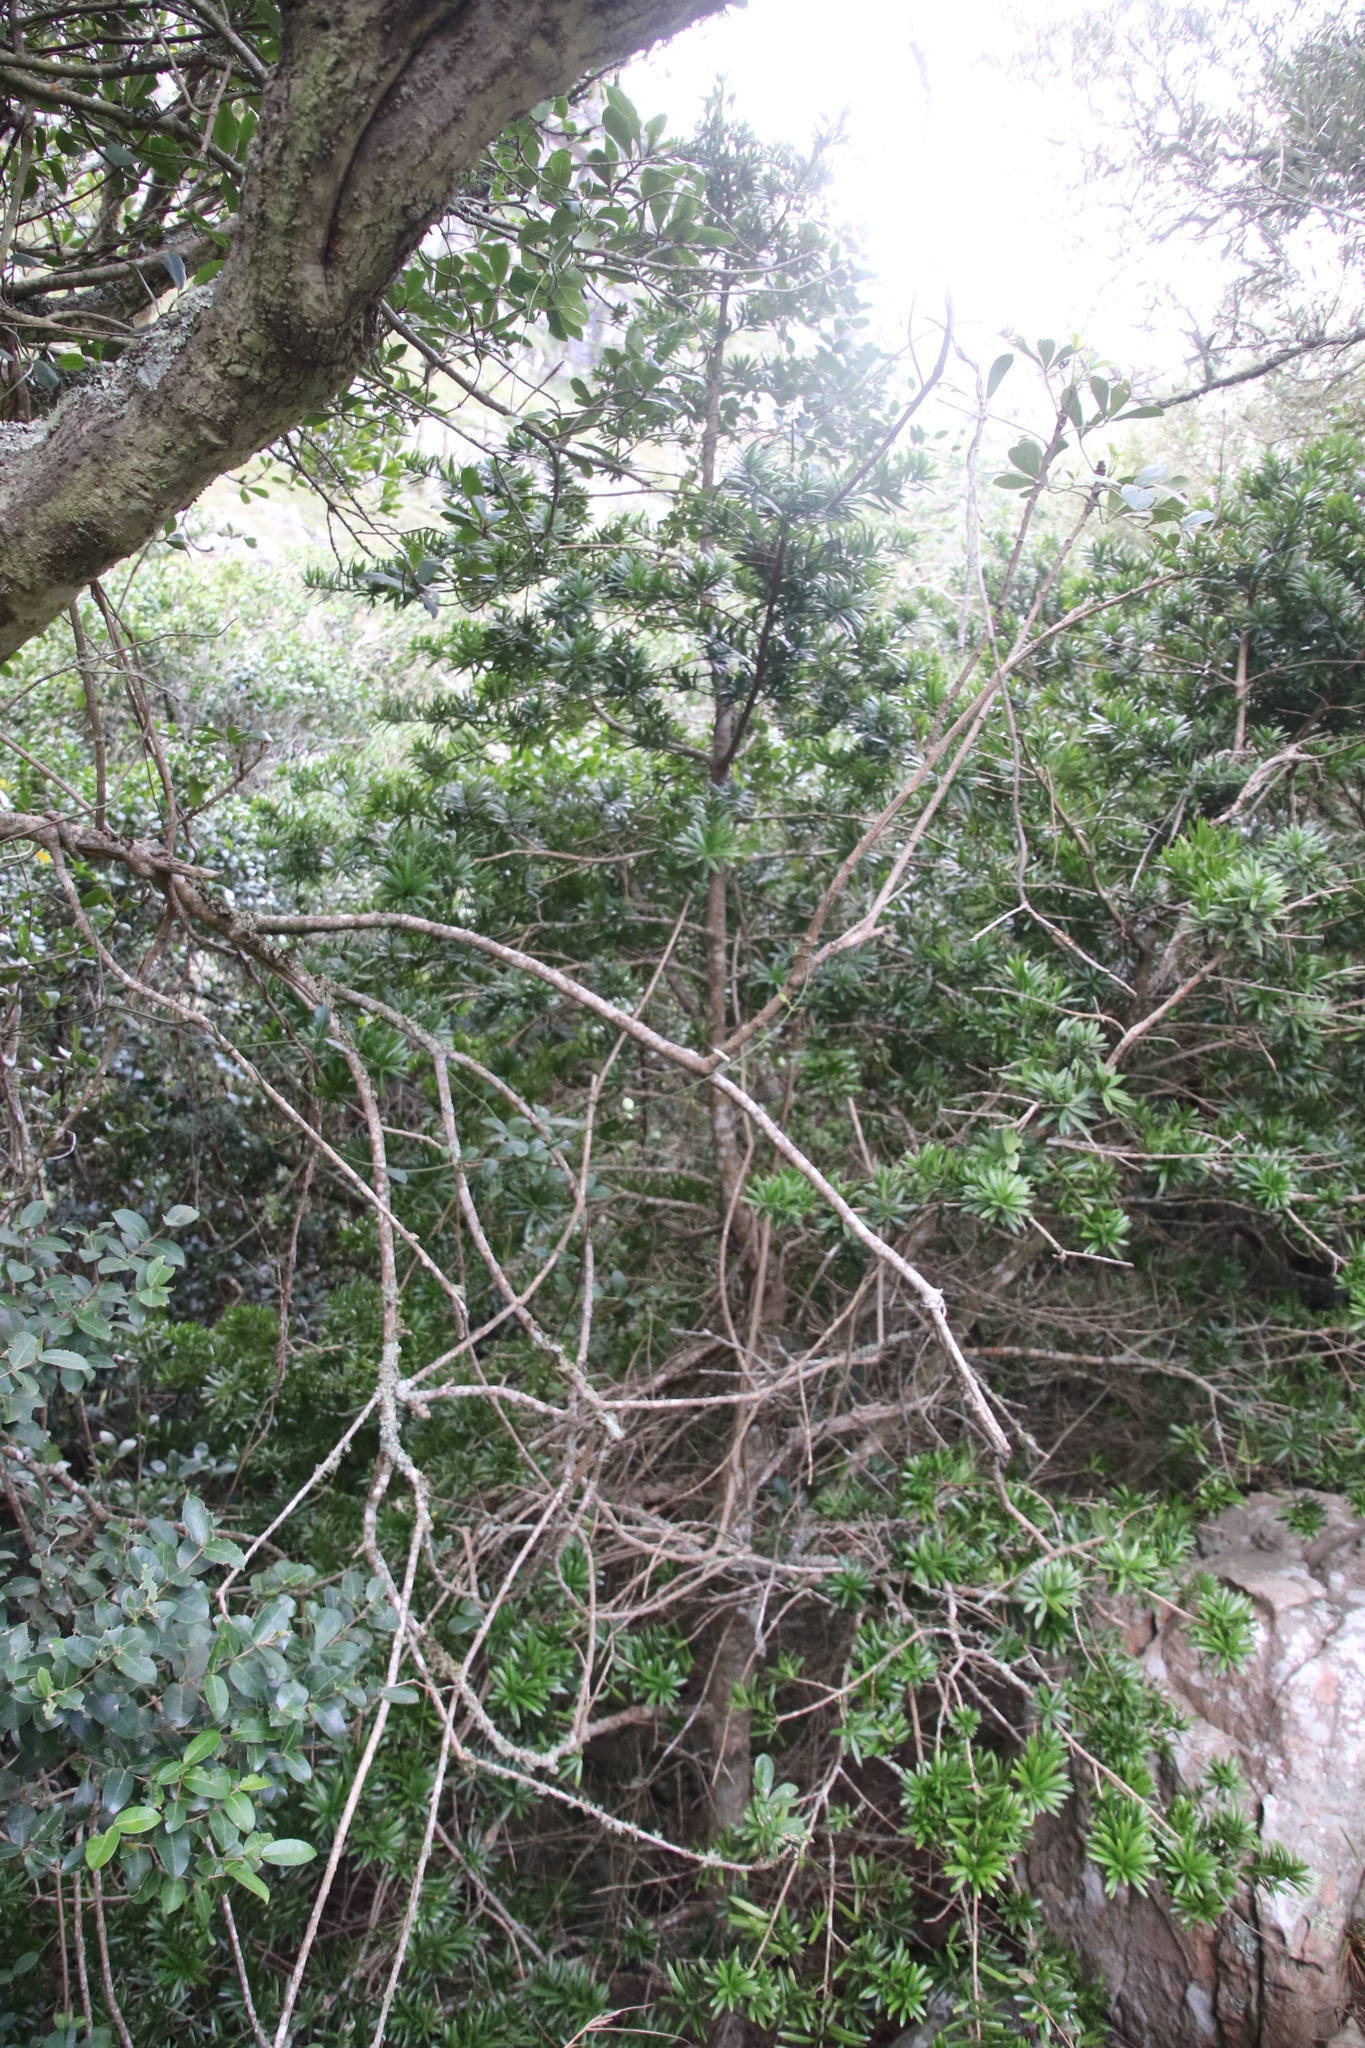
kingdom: Plantae
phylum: Tracheophyta
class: Pinopsida
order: Pinales
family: Podocarpaceae
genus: Podocarpus
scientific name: Podocarpus latifolius
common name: True yellowwood
